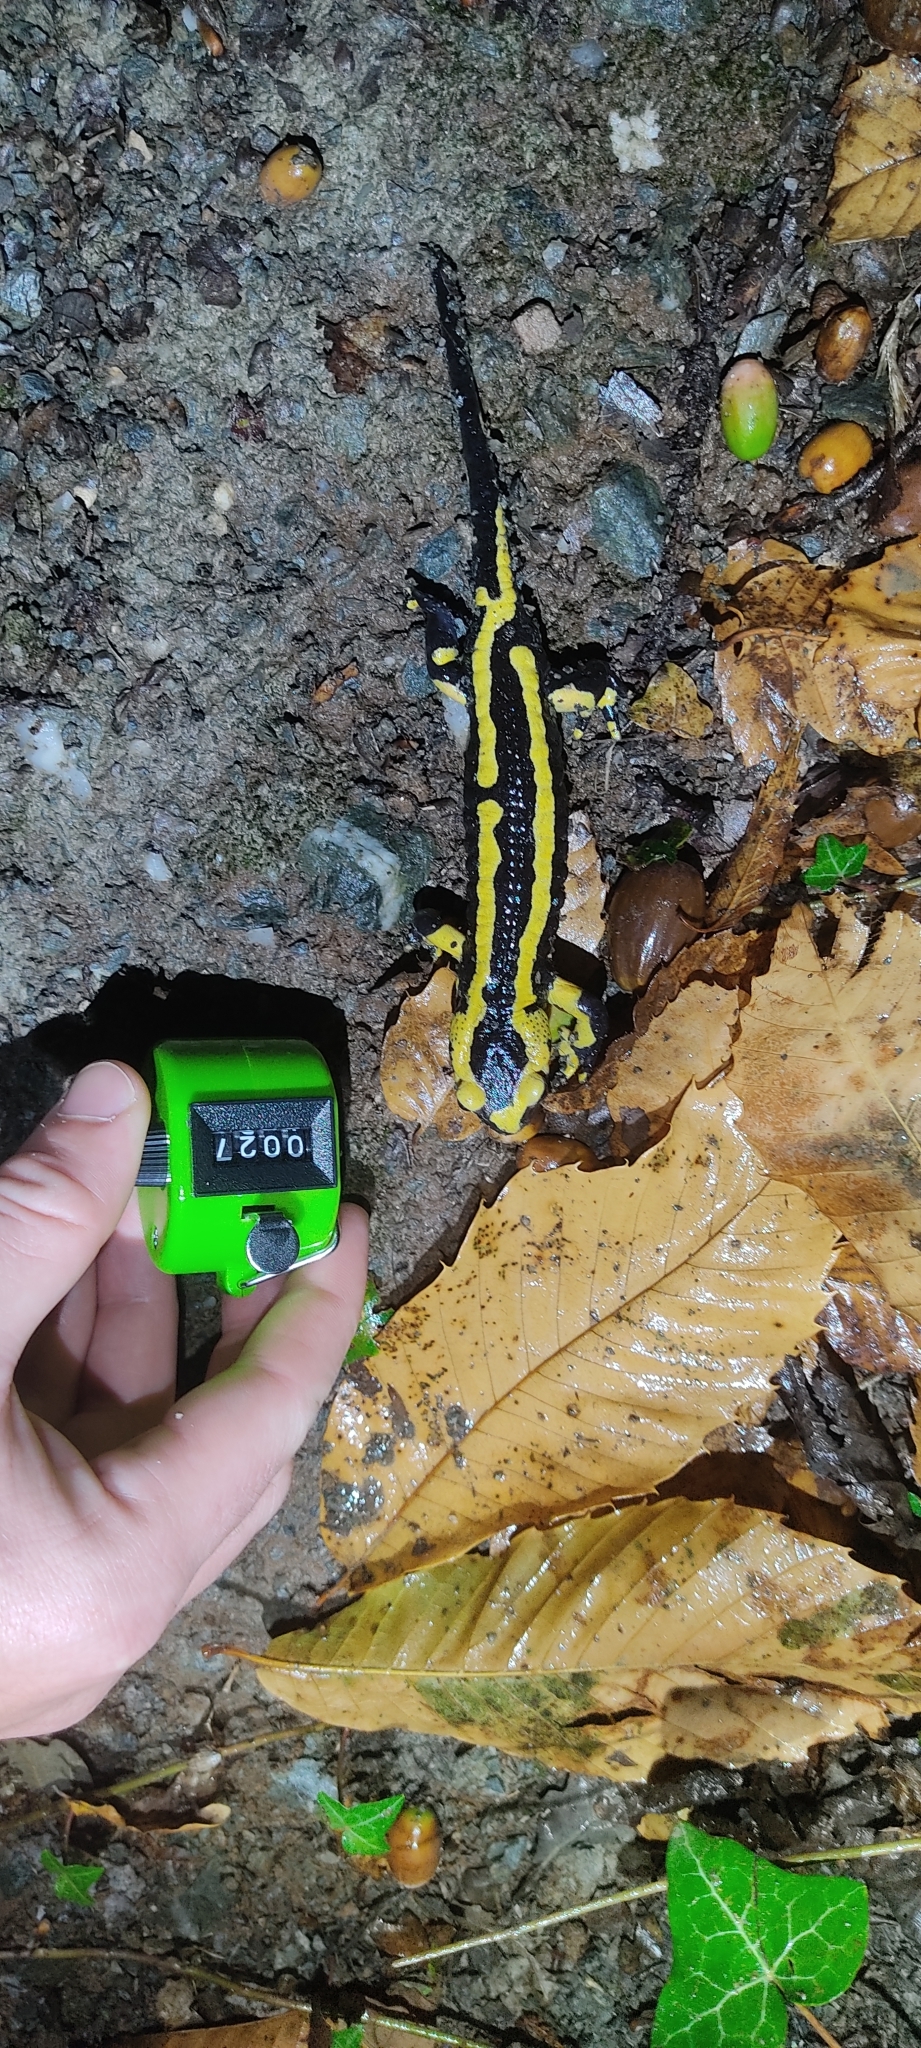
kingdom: Animalia
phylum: Chordata
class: Amphibia
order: Caudata
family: Salamandridae
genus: Salamandra
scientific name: Salamandra salamandra
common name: Fire salamander
